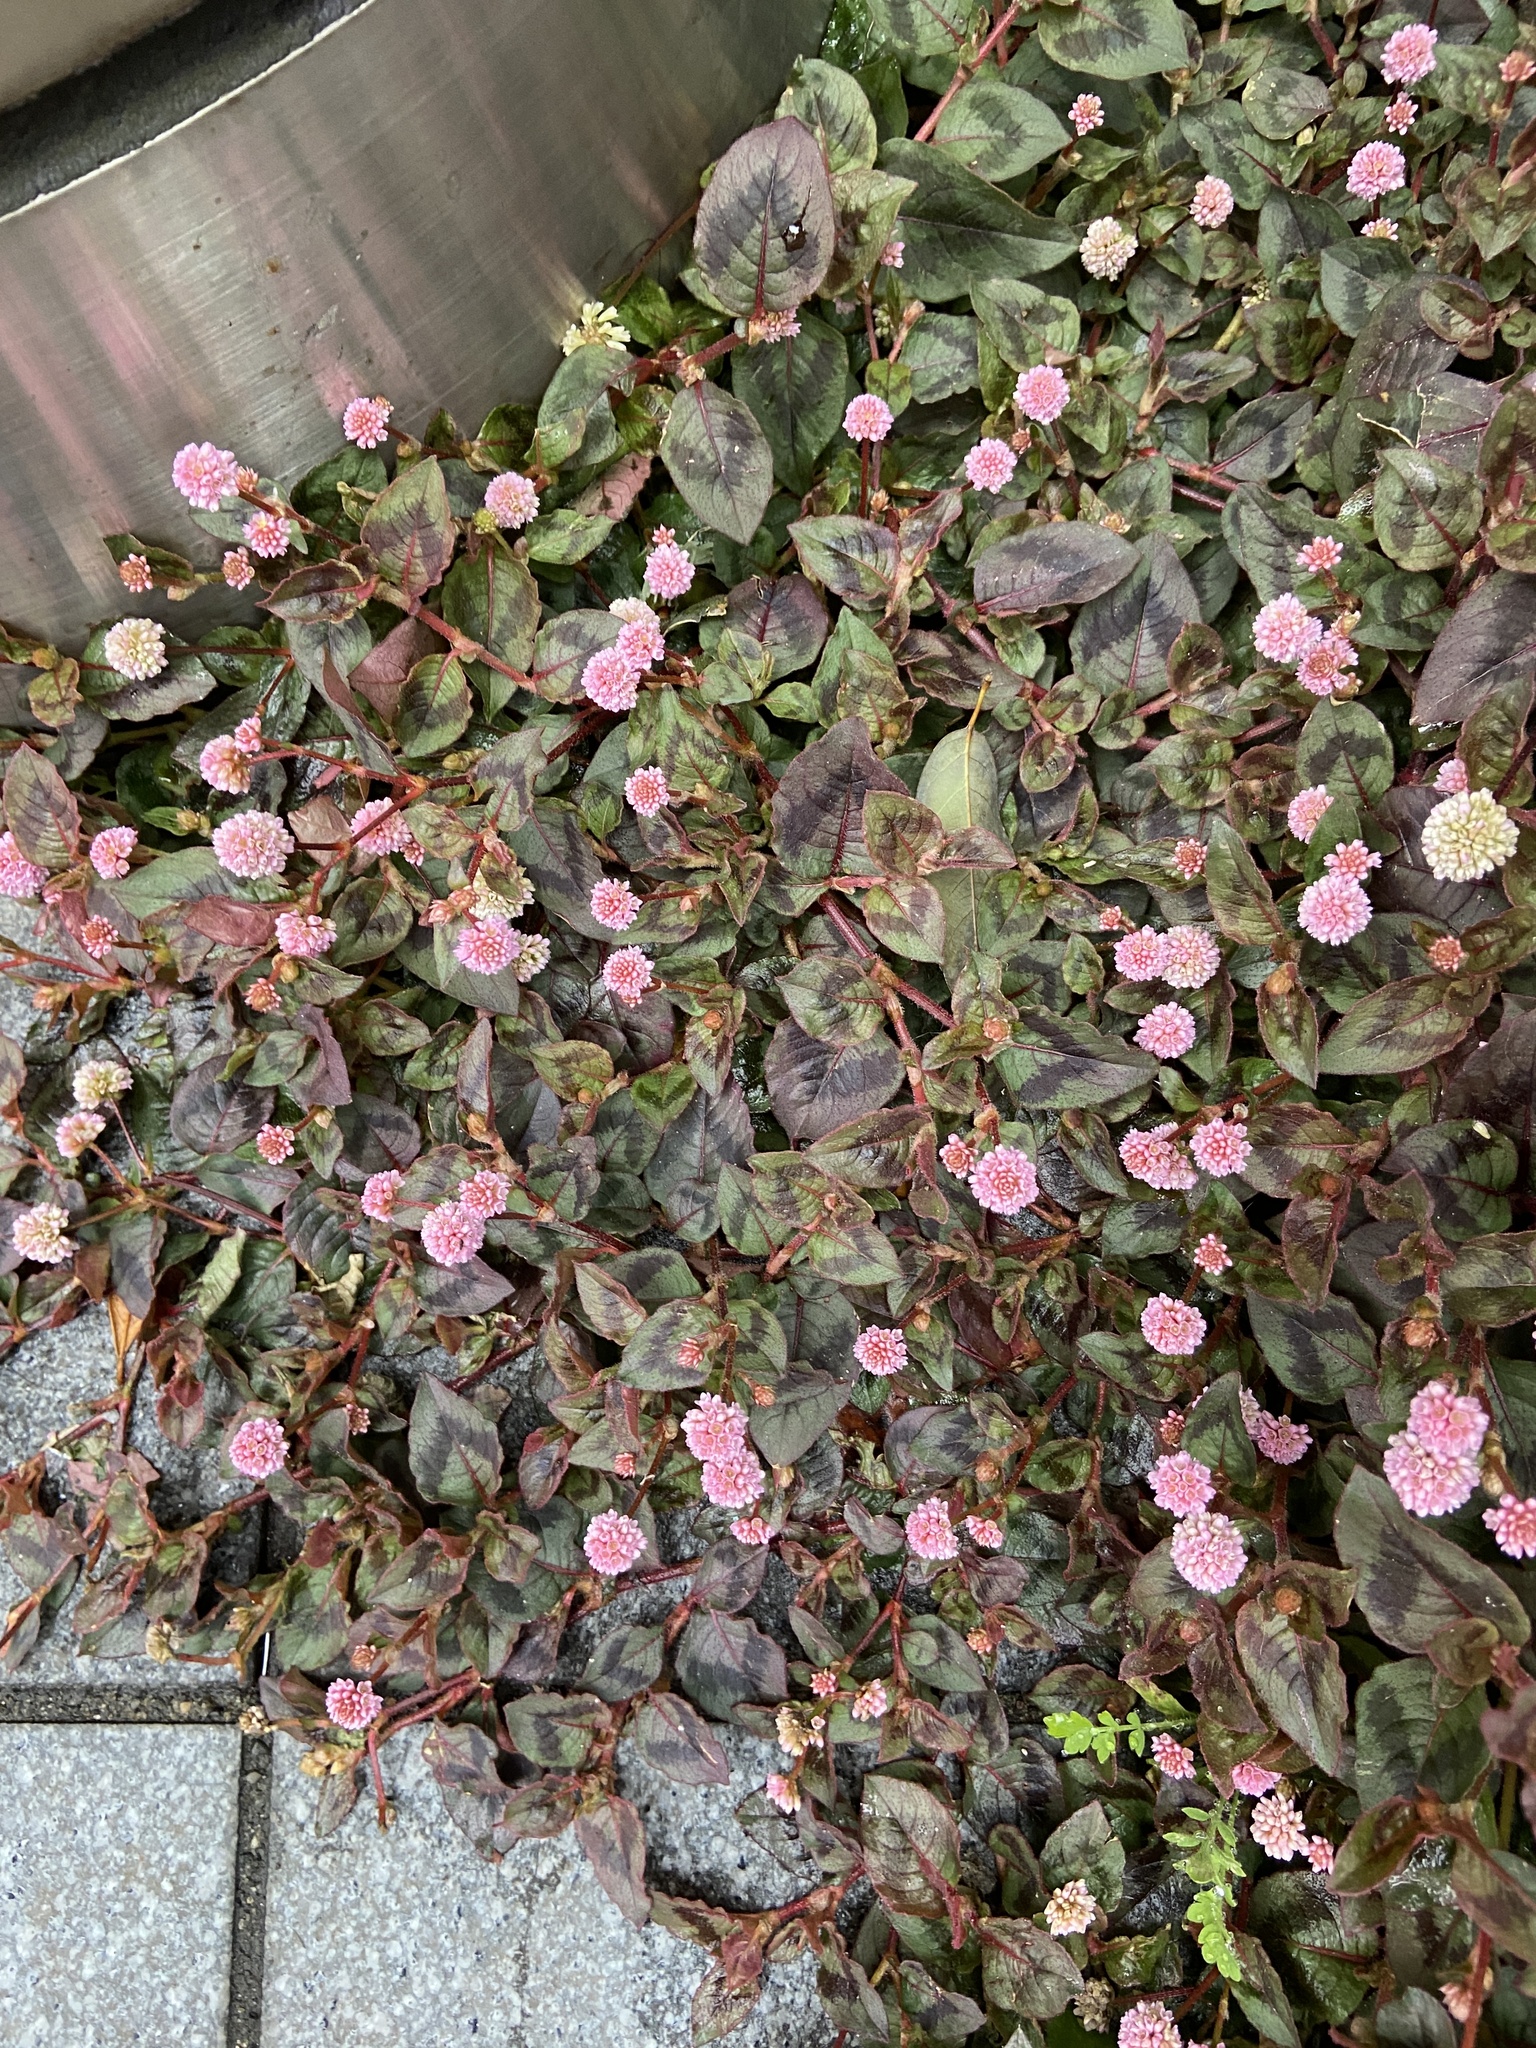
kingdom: Plantae
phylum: Tracheophyta
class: Magnoliopsida
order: Caryophyllales
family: Polygonaceae
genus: Persicaria
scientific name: Persicaria capitata
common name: Pinkhead smartweed
